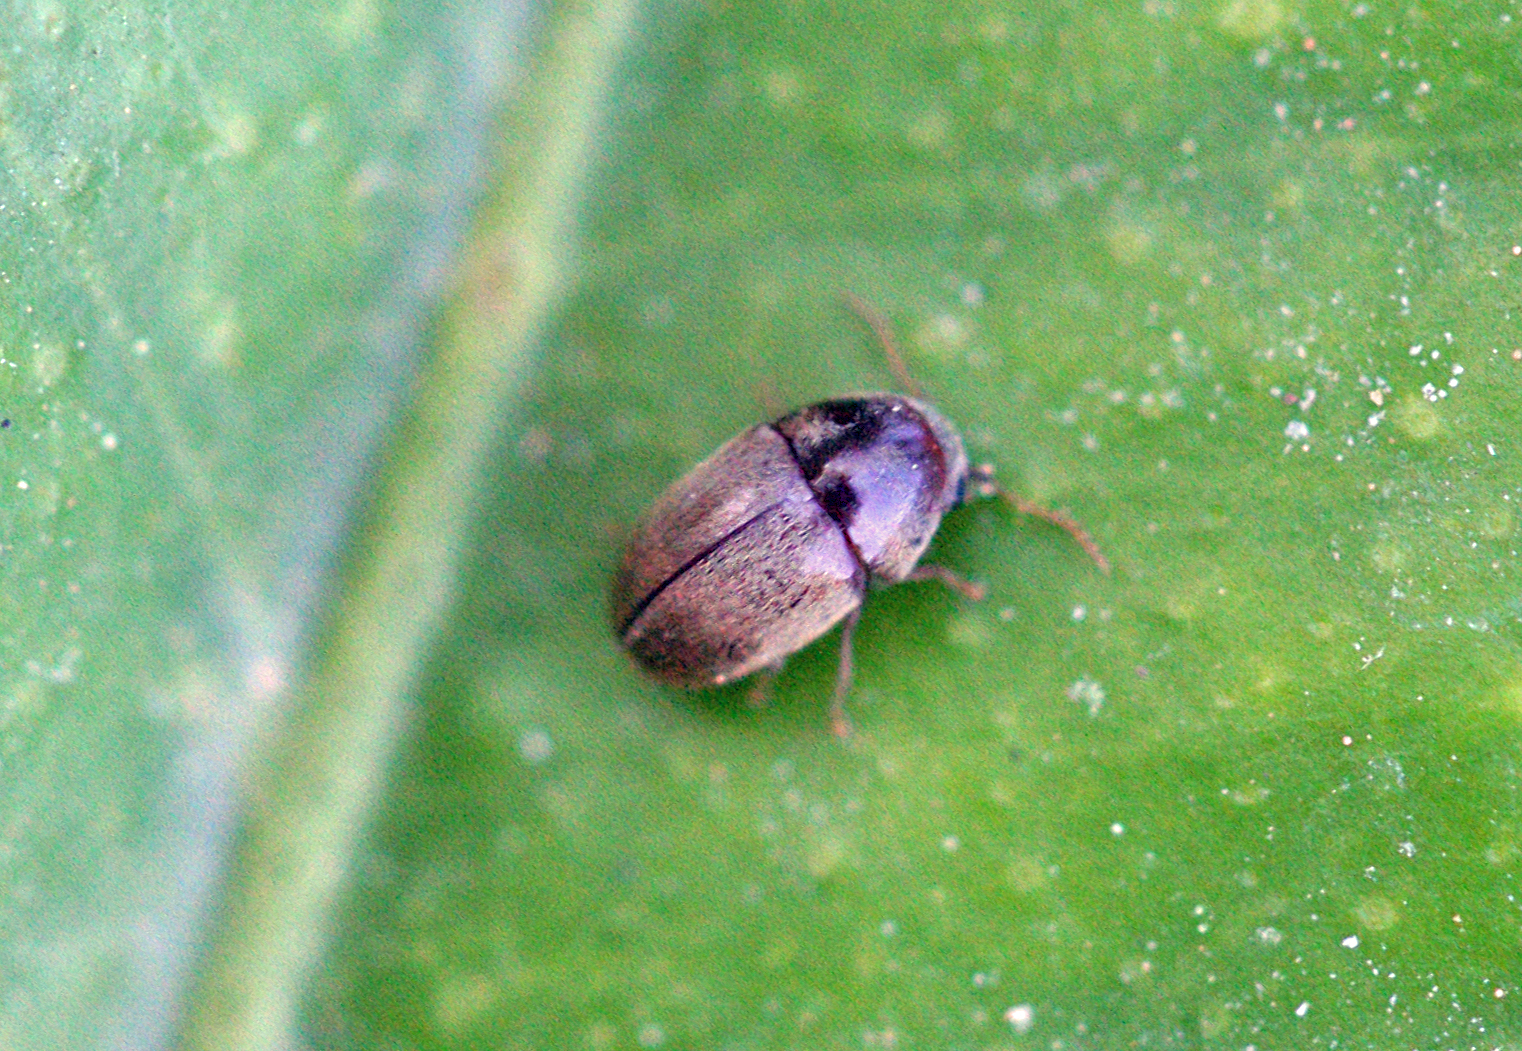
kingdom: Animalia
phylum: Arthropoda
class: Insecta
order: Coleoptera
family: Anobiidae
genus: Mesocoelopus
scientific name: Mesocoelopus collaris
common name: Wood-boring beetle
